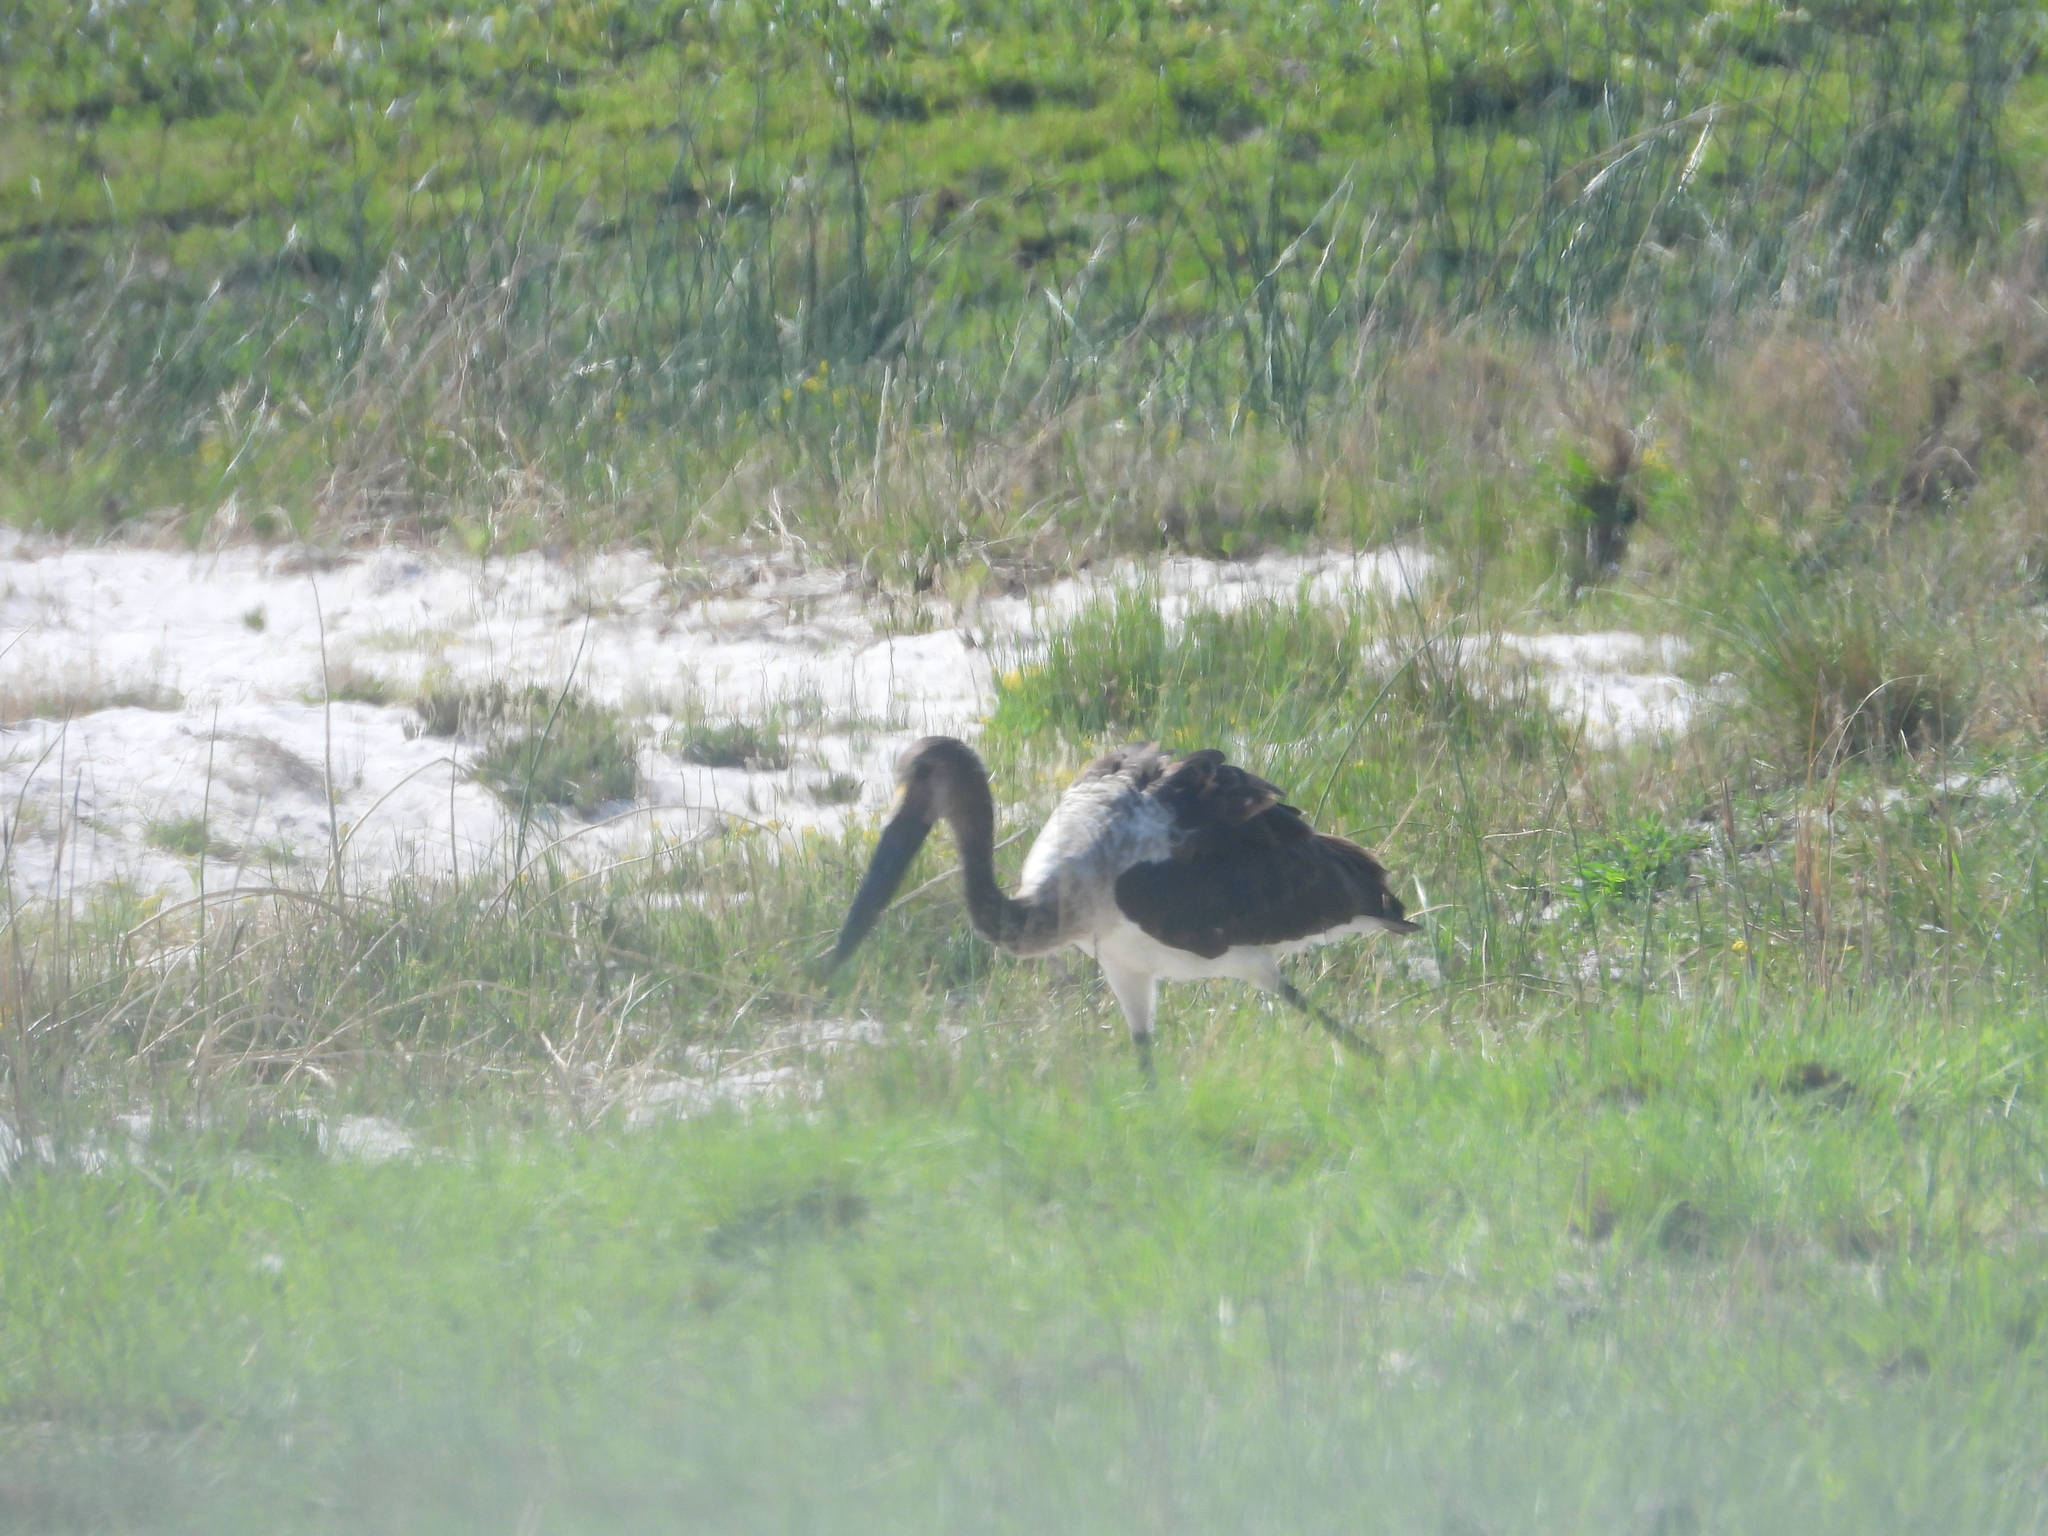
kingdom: Animalia
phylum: Chordata
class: Aves
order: Ciconiiformes
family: Ciconiidae
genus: Ephippiorhynchus
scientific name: Ephippiorhynchus senegalensis
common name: Saddle-billed stork
